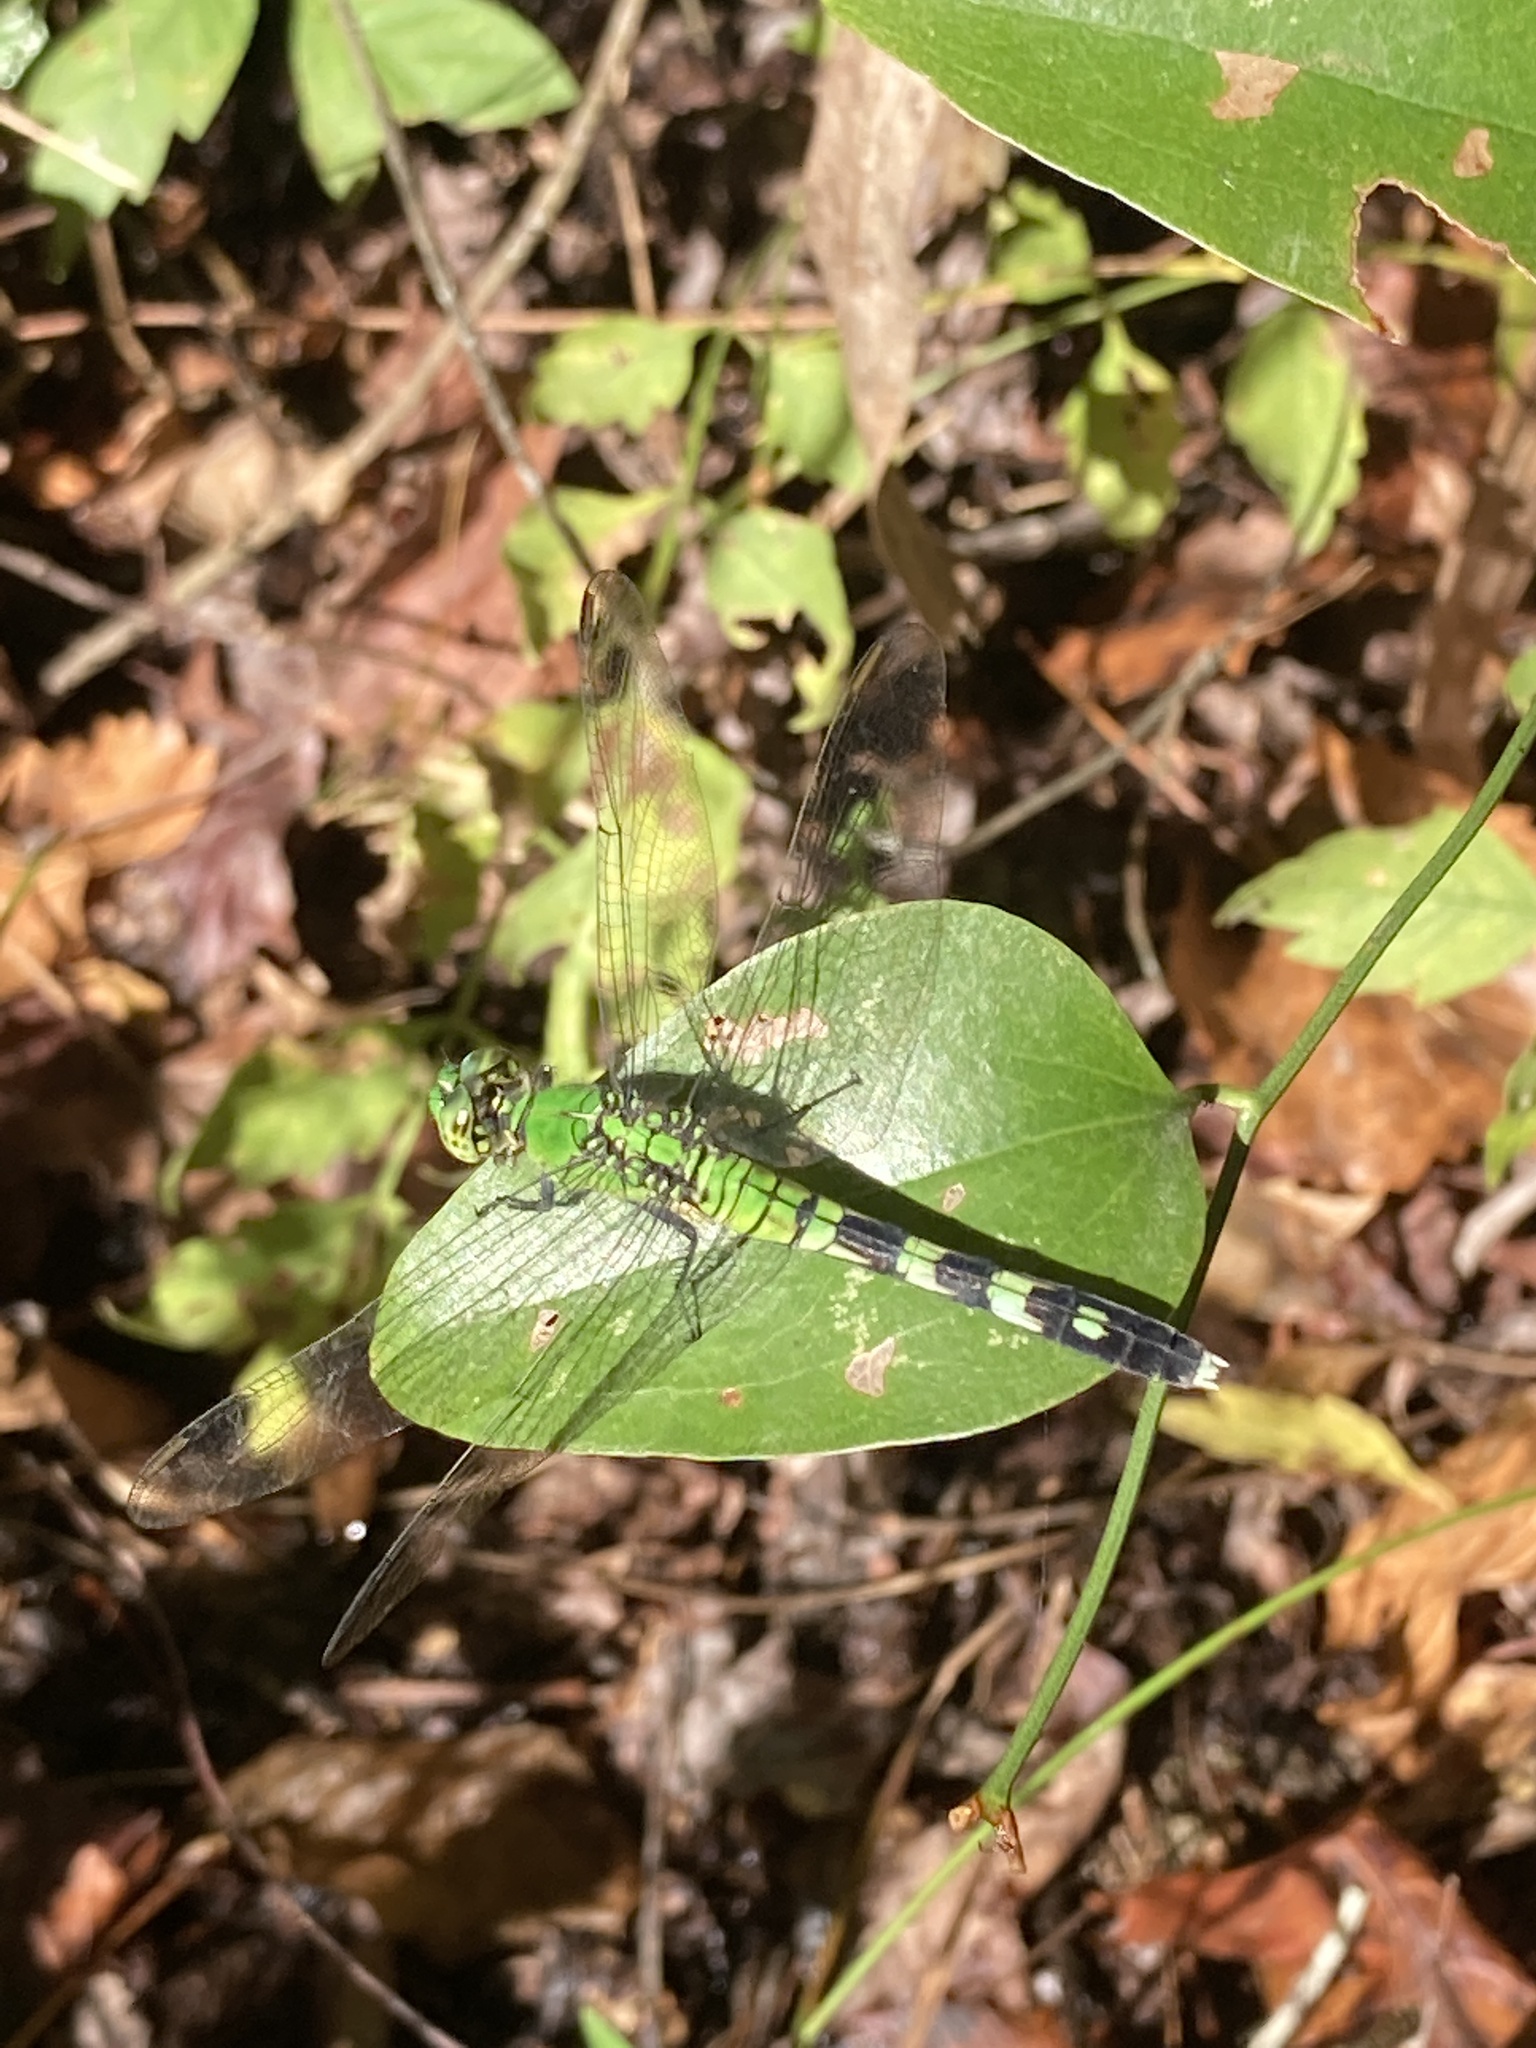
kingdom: Animalia
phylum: Arthropoda
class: Insecta
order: Odonata
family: Libellulidae
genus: Erythemis
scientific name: Erythemis simplicicollis
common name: Eastern pondhawk
